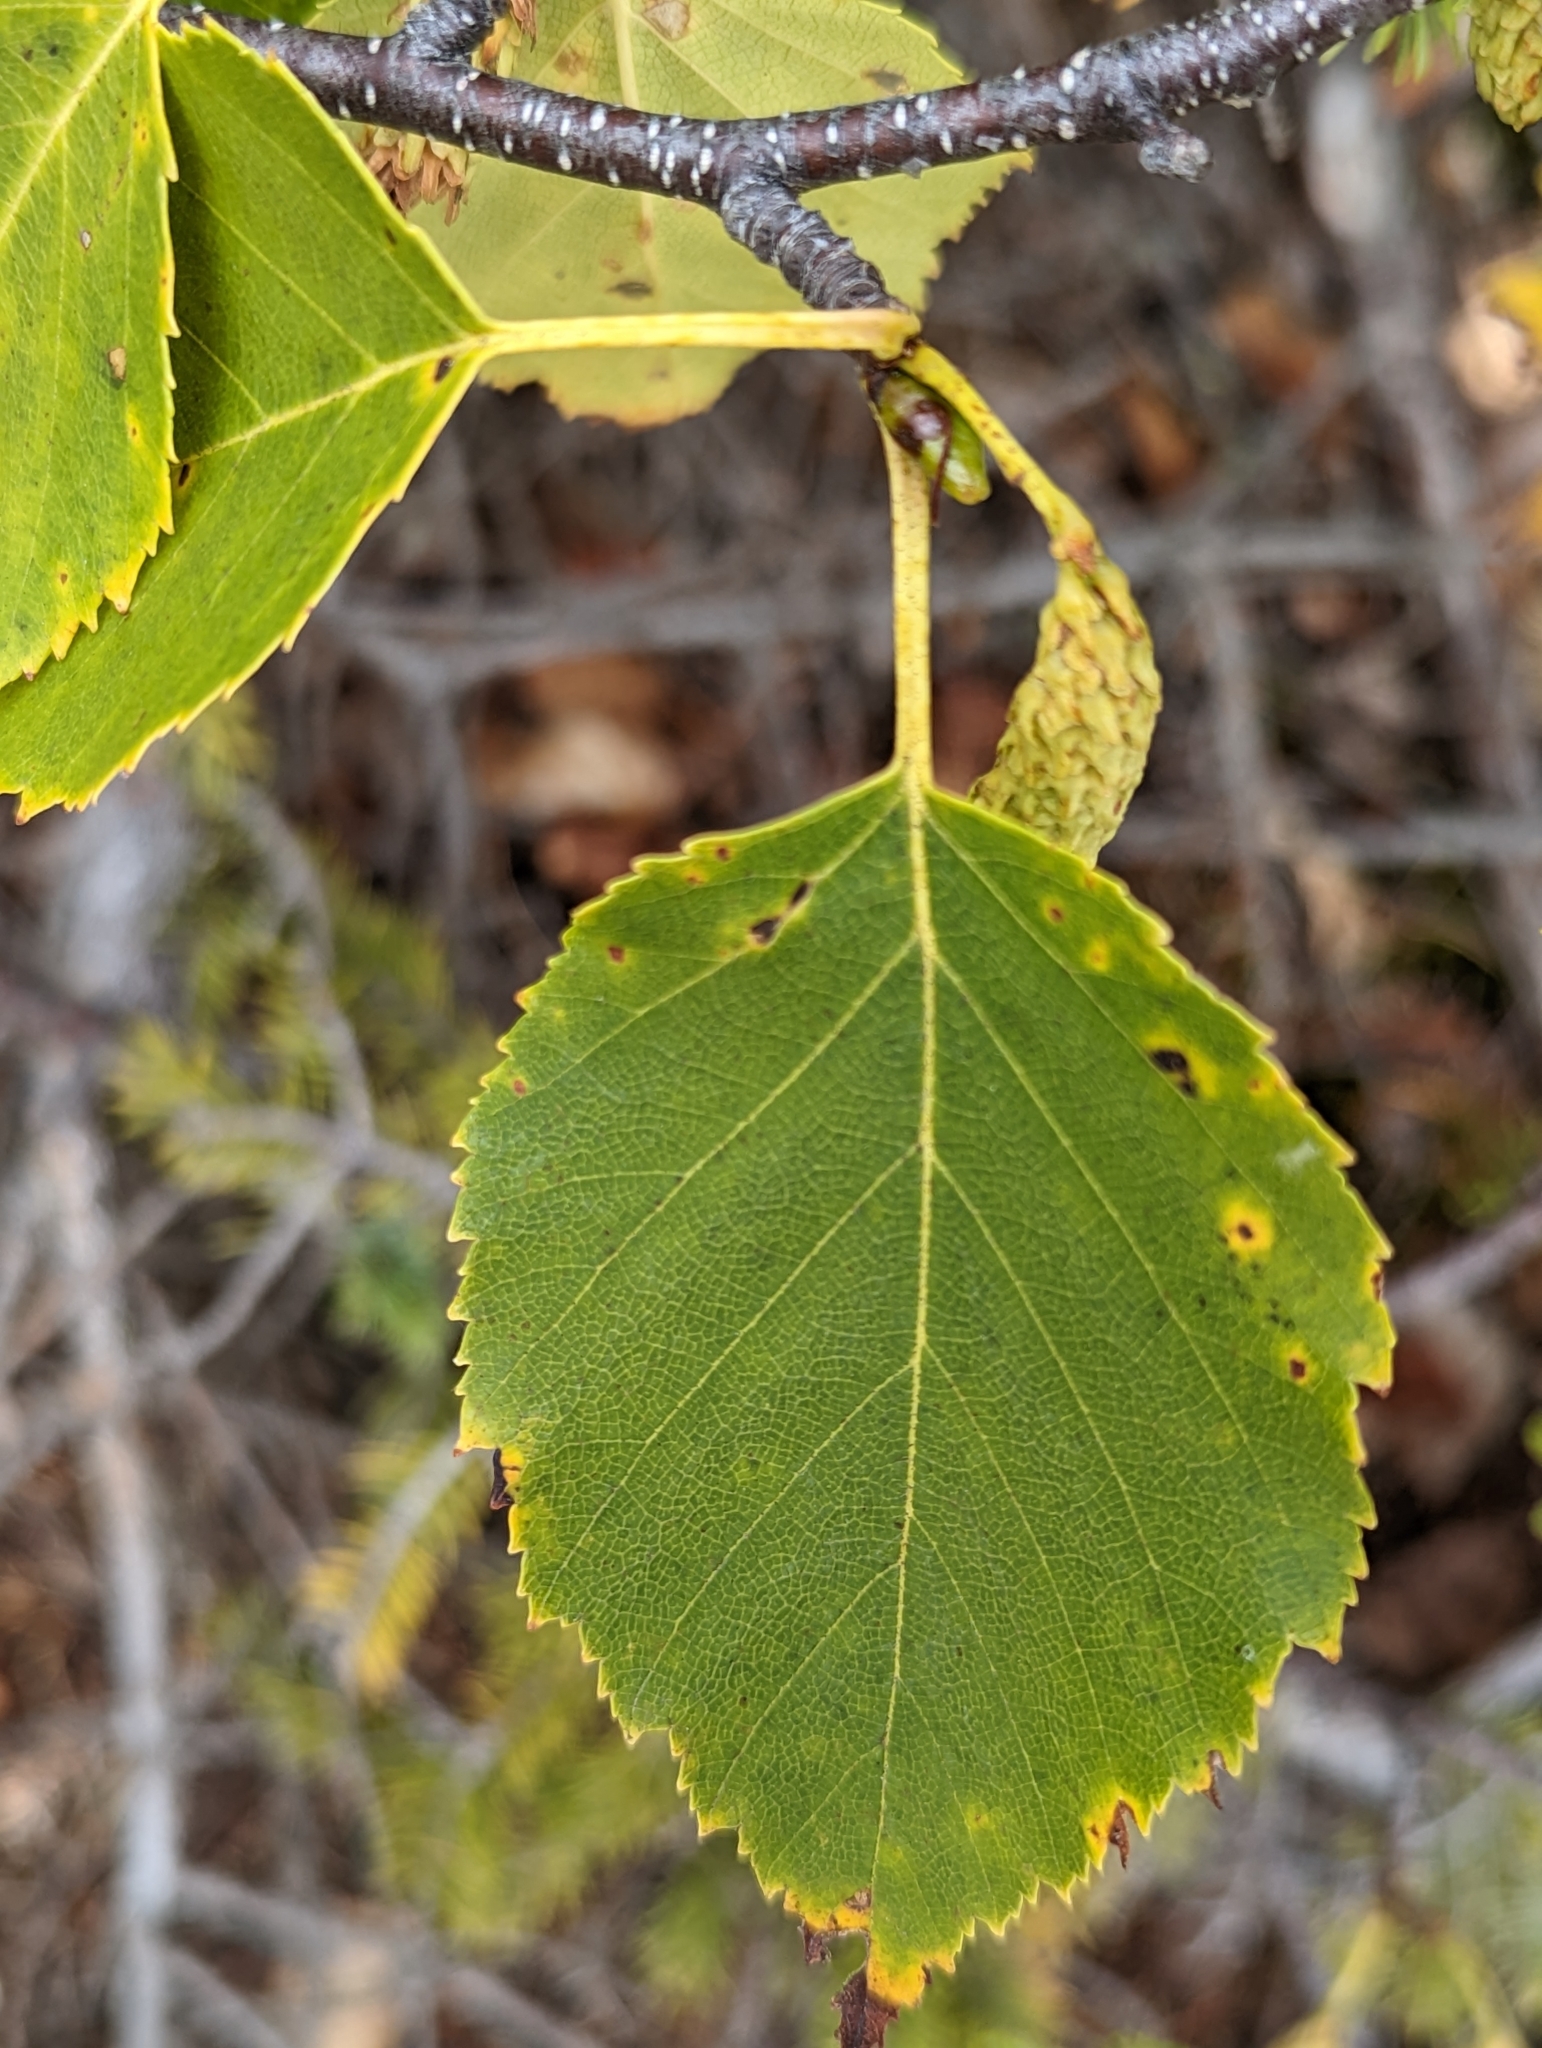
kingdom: Plantae
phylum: Tracheophyta
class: Magnoliopsida
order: Fagales
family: Betulaceae
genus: Betula
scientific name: Betula papyrifera
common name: Paper birch
